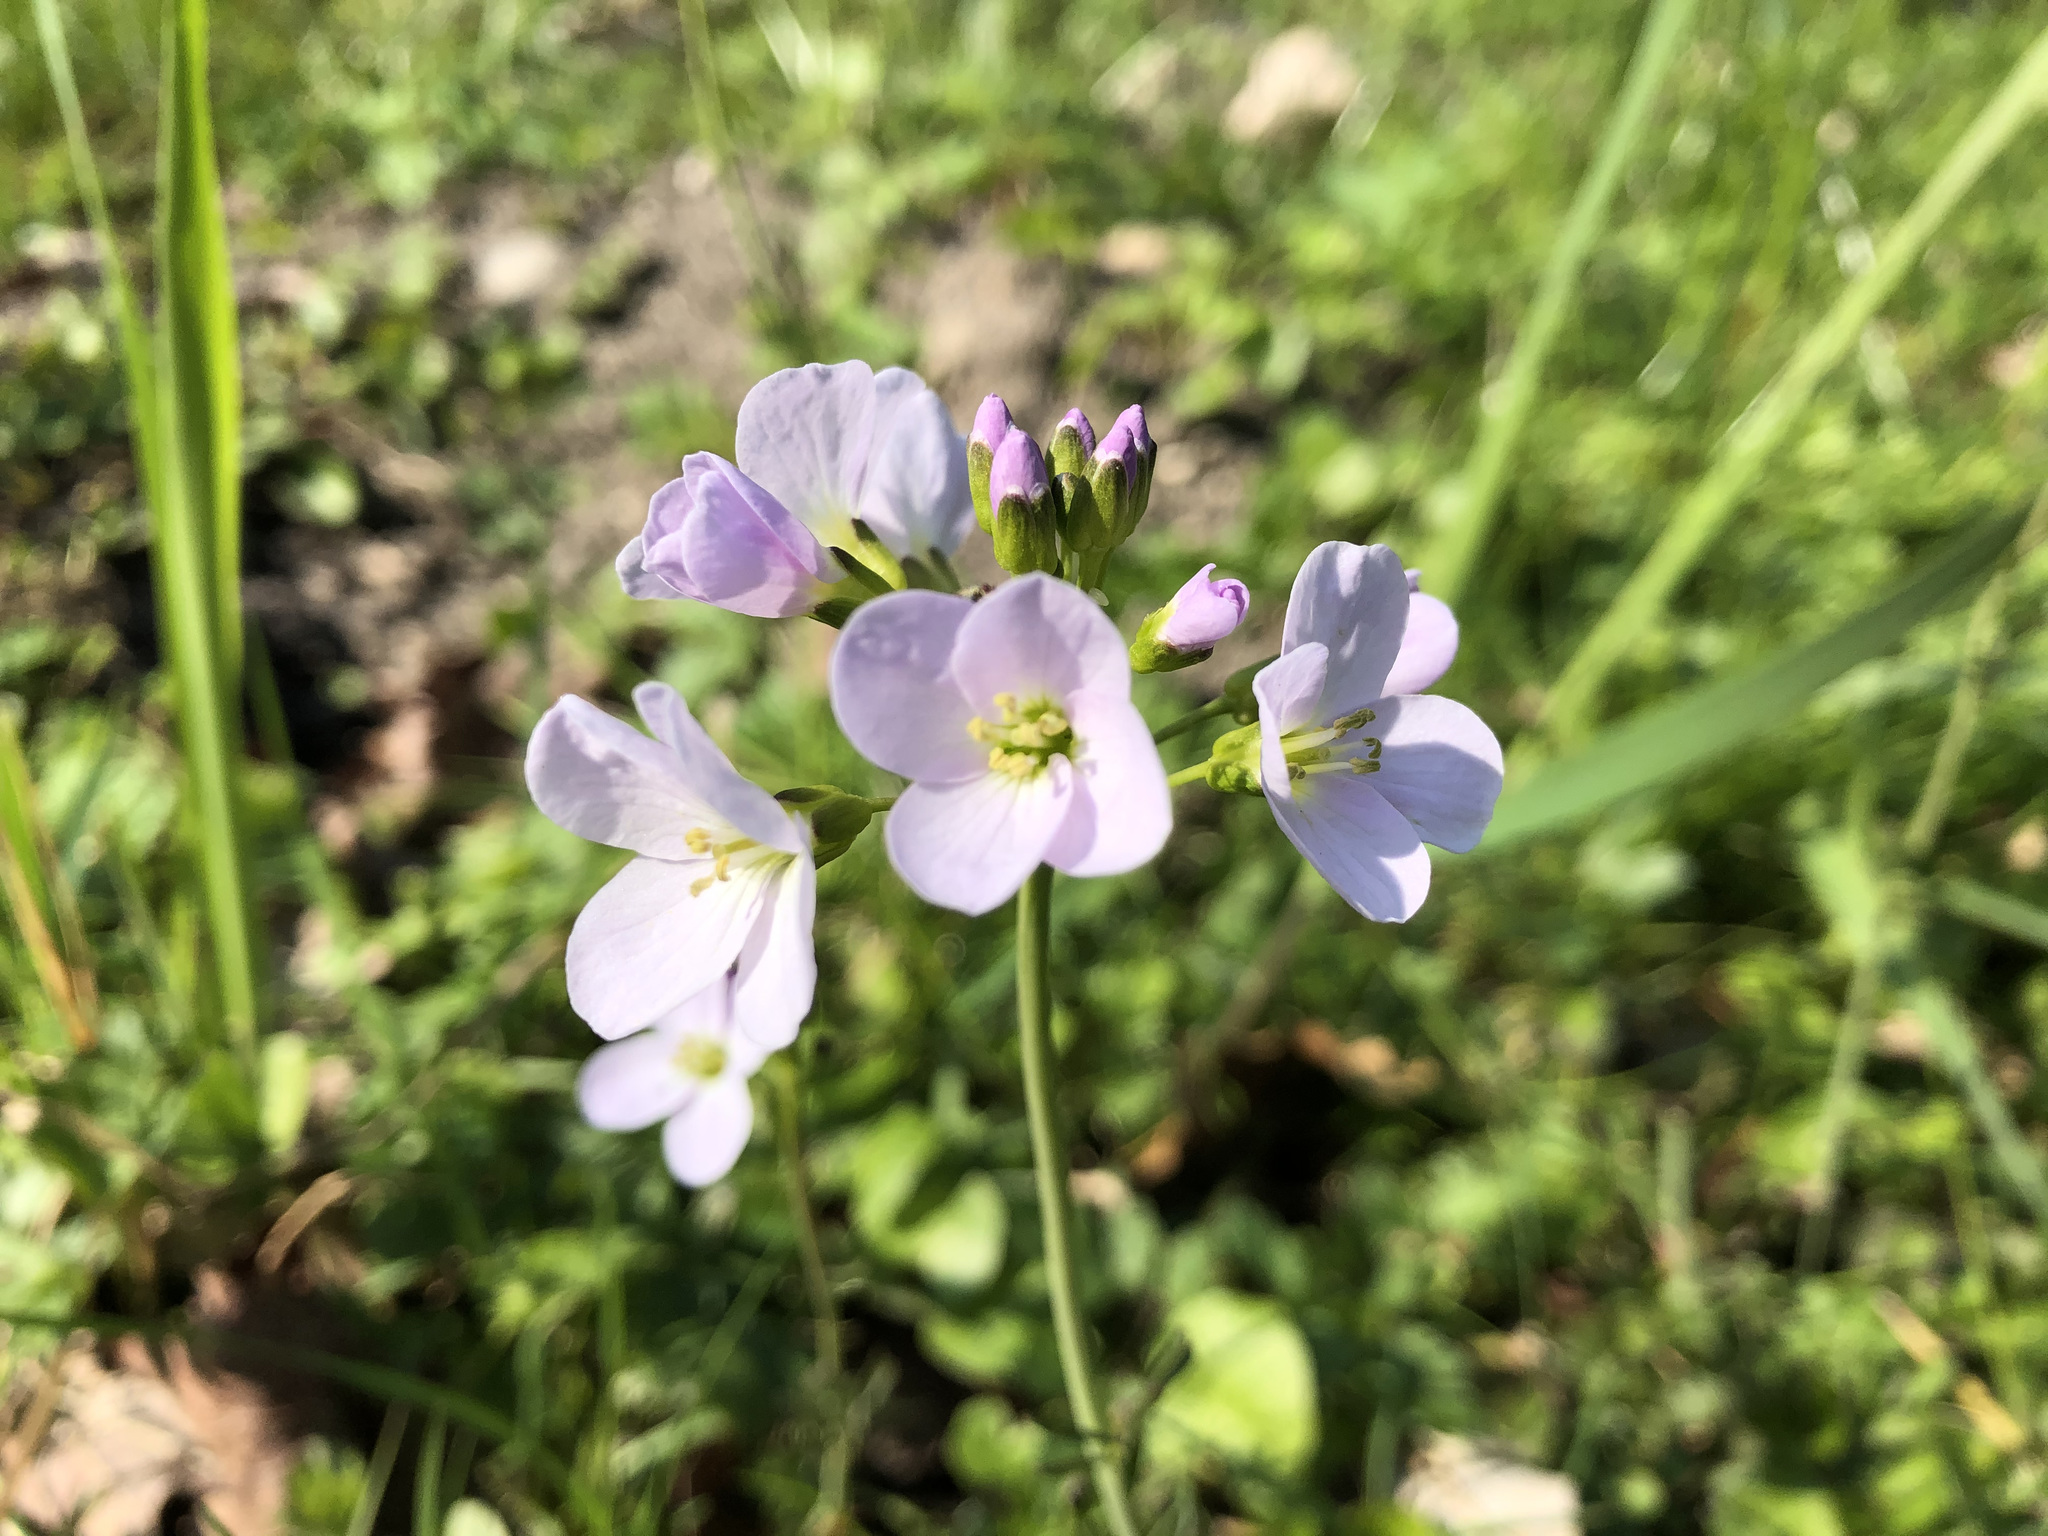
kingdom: Plantae
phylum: Tracheophyta
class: Magnoliopsida
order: Brassicales
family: Brassicaceae
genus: Cardamine
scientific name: Cardamine pratensis
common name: Cuckoo flower
